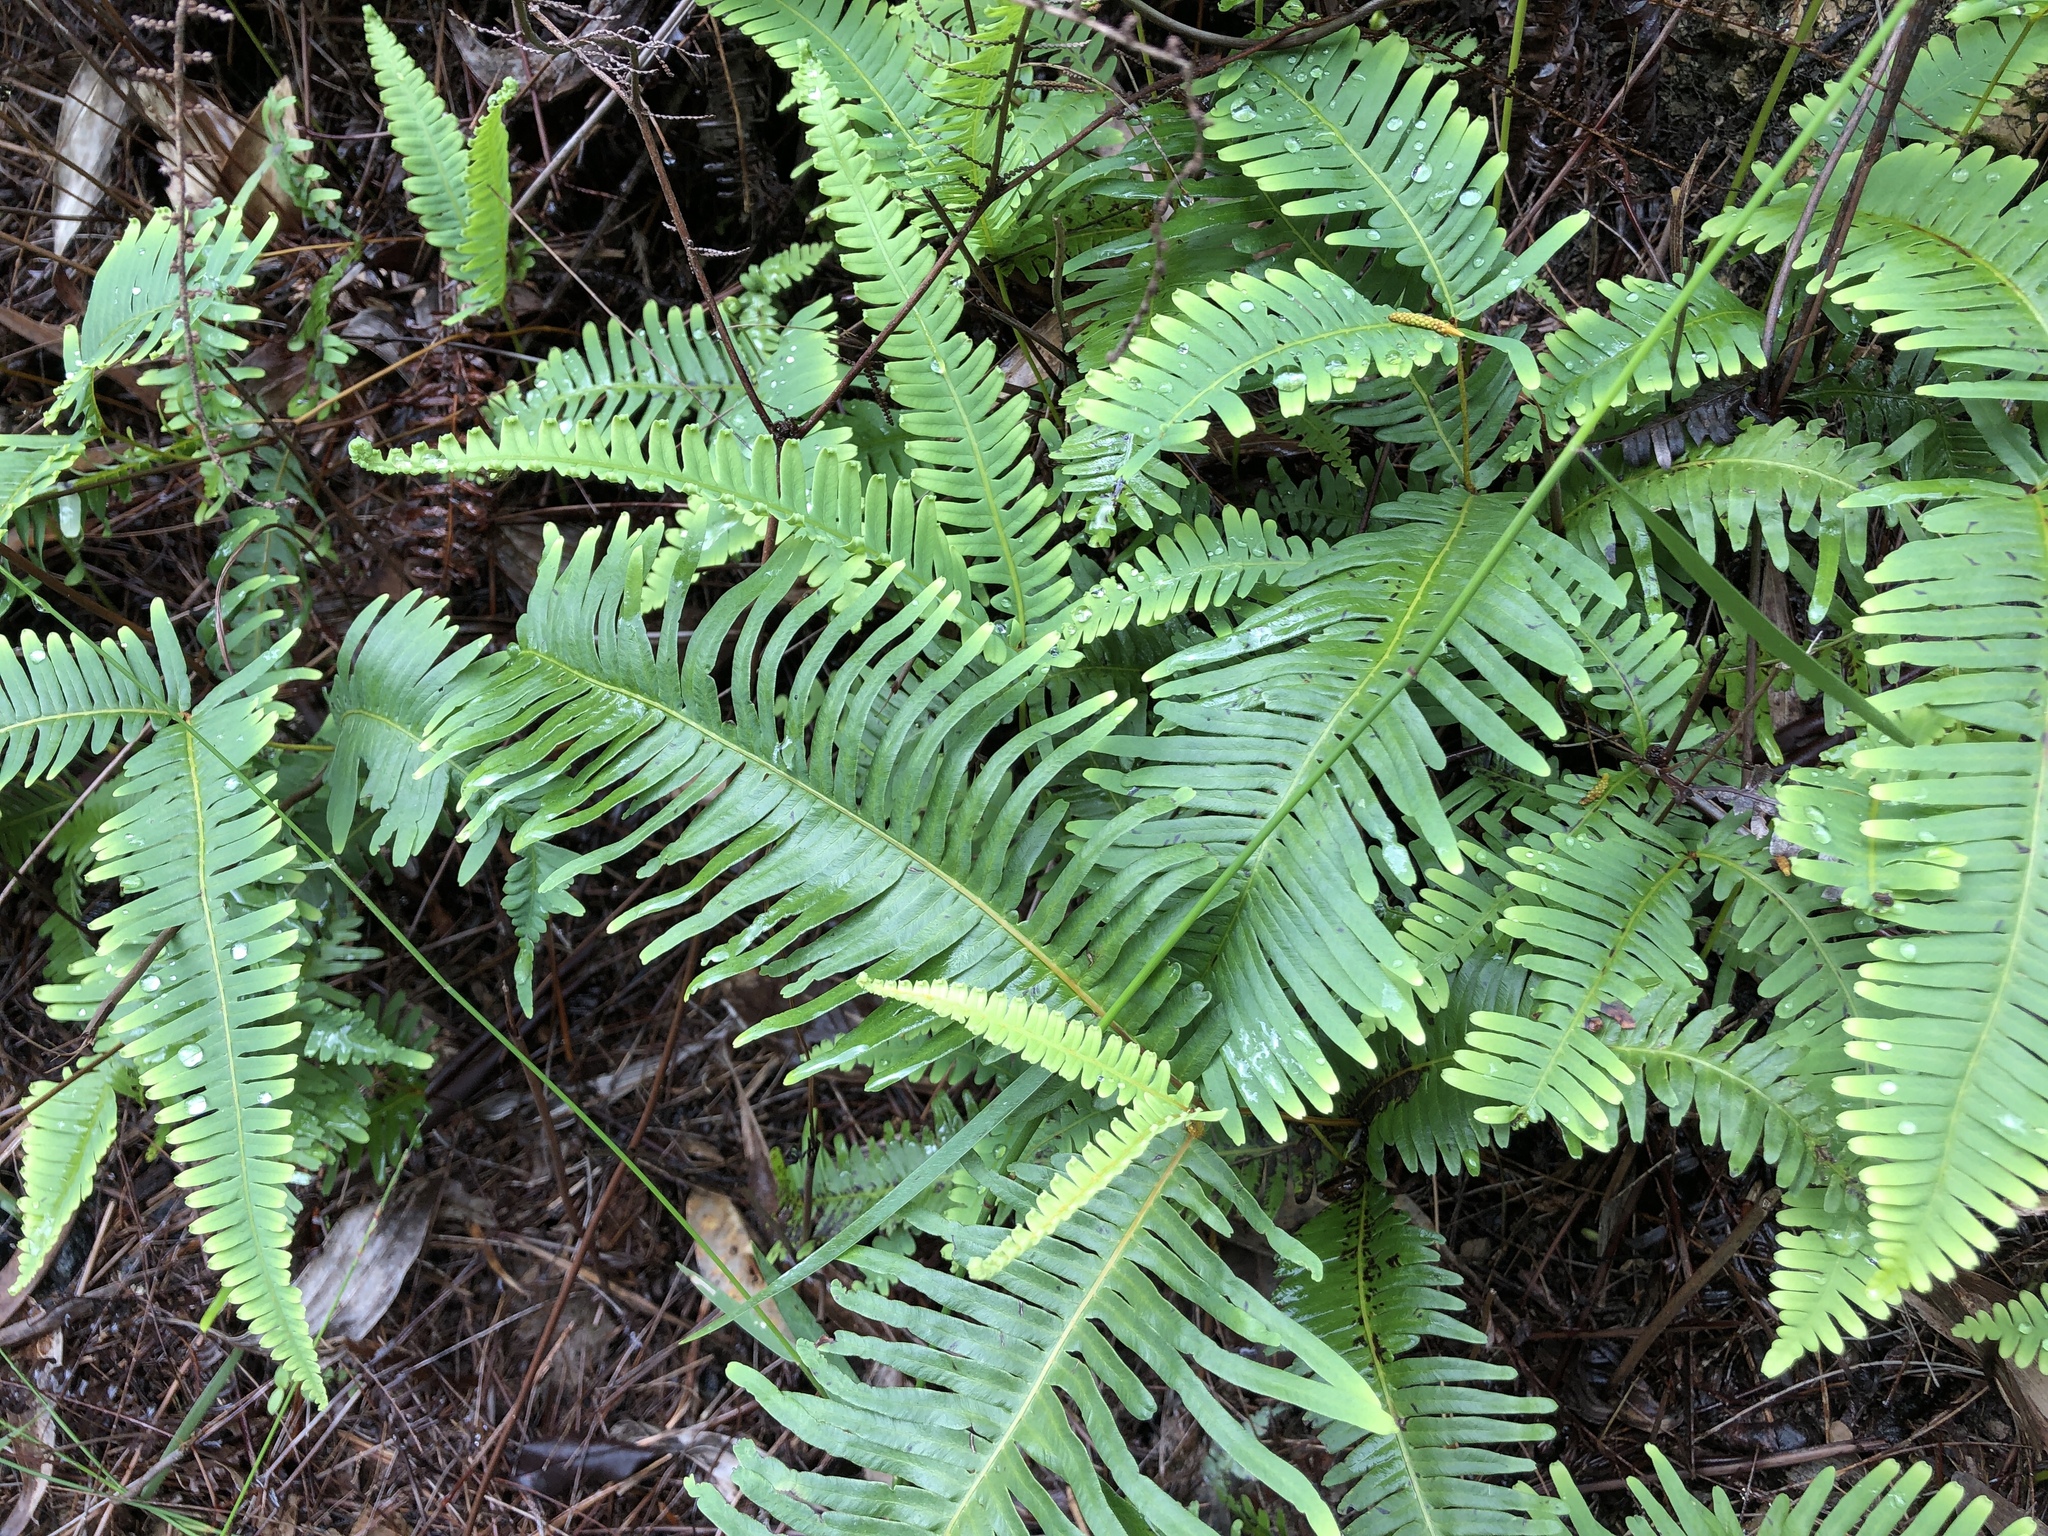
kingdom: Plantae
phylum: Tracheophyta
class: Polypodiopsida
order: Gleicheniales
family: Gleicheniaceae
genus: Dicranopteris
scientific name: Dicranopteris linearis
